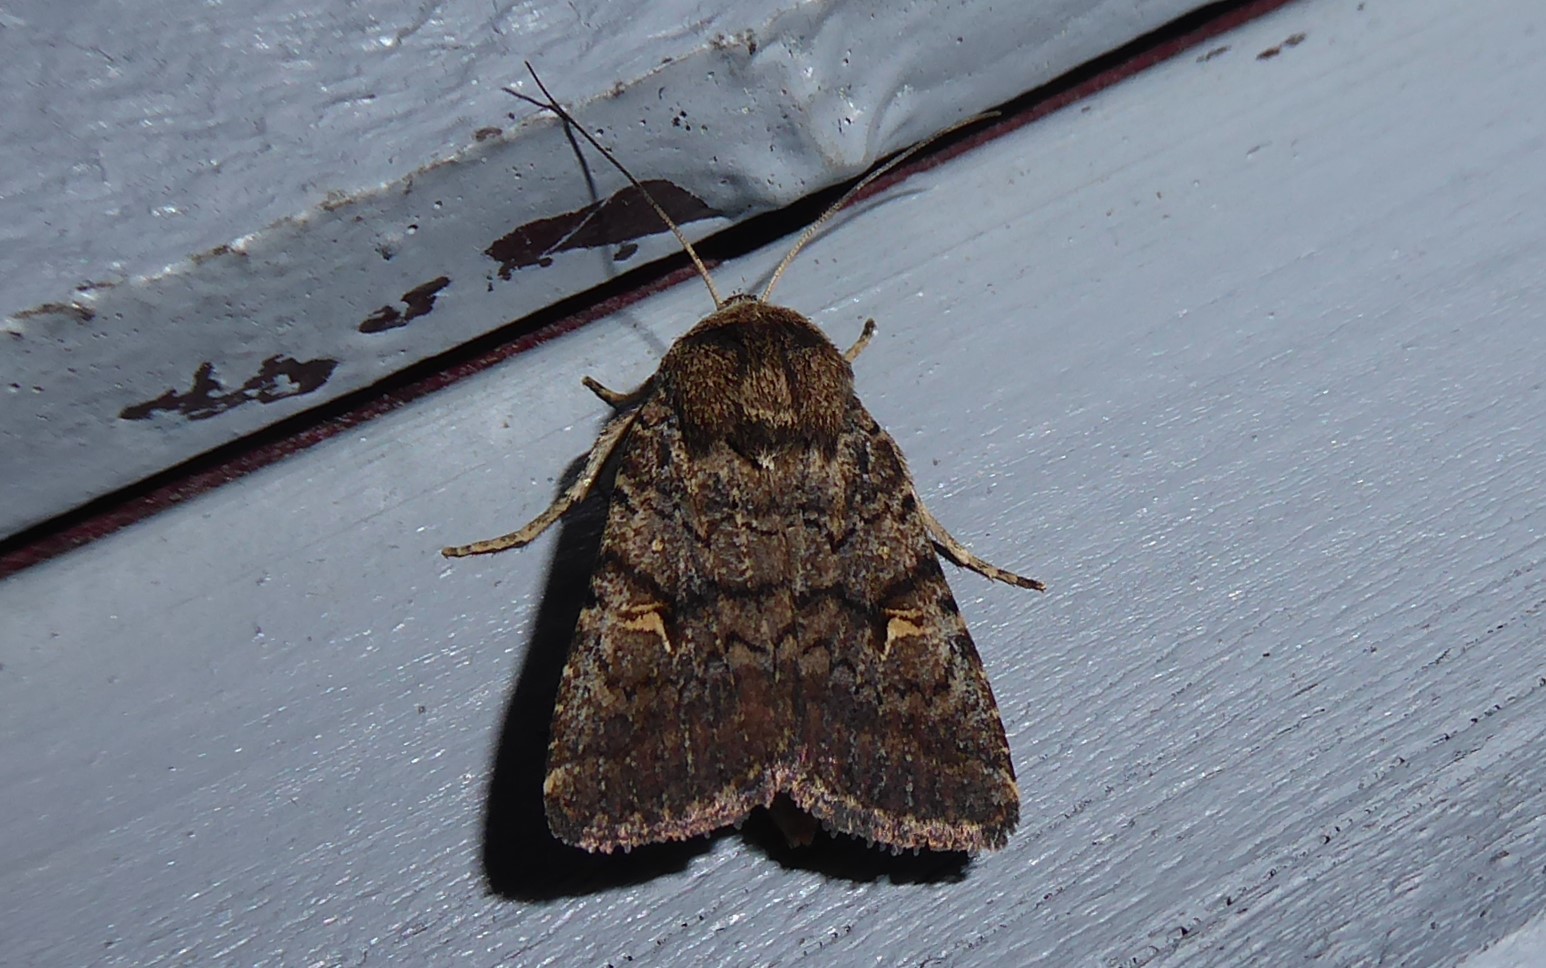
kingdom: Animalia
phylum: Arthropoda
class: Insecta
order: Lepidoptera
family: Noctuidae
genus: Proteuxoa
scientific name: Proteuxoa tetronycha
